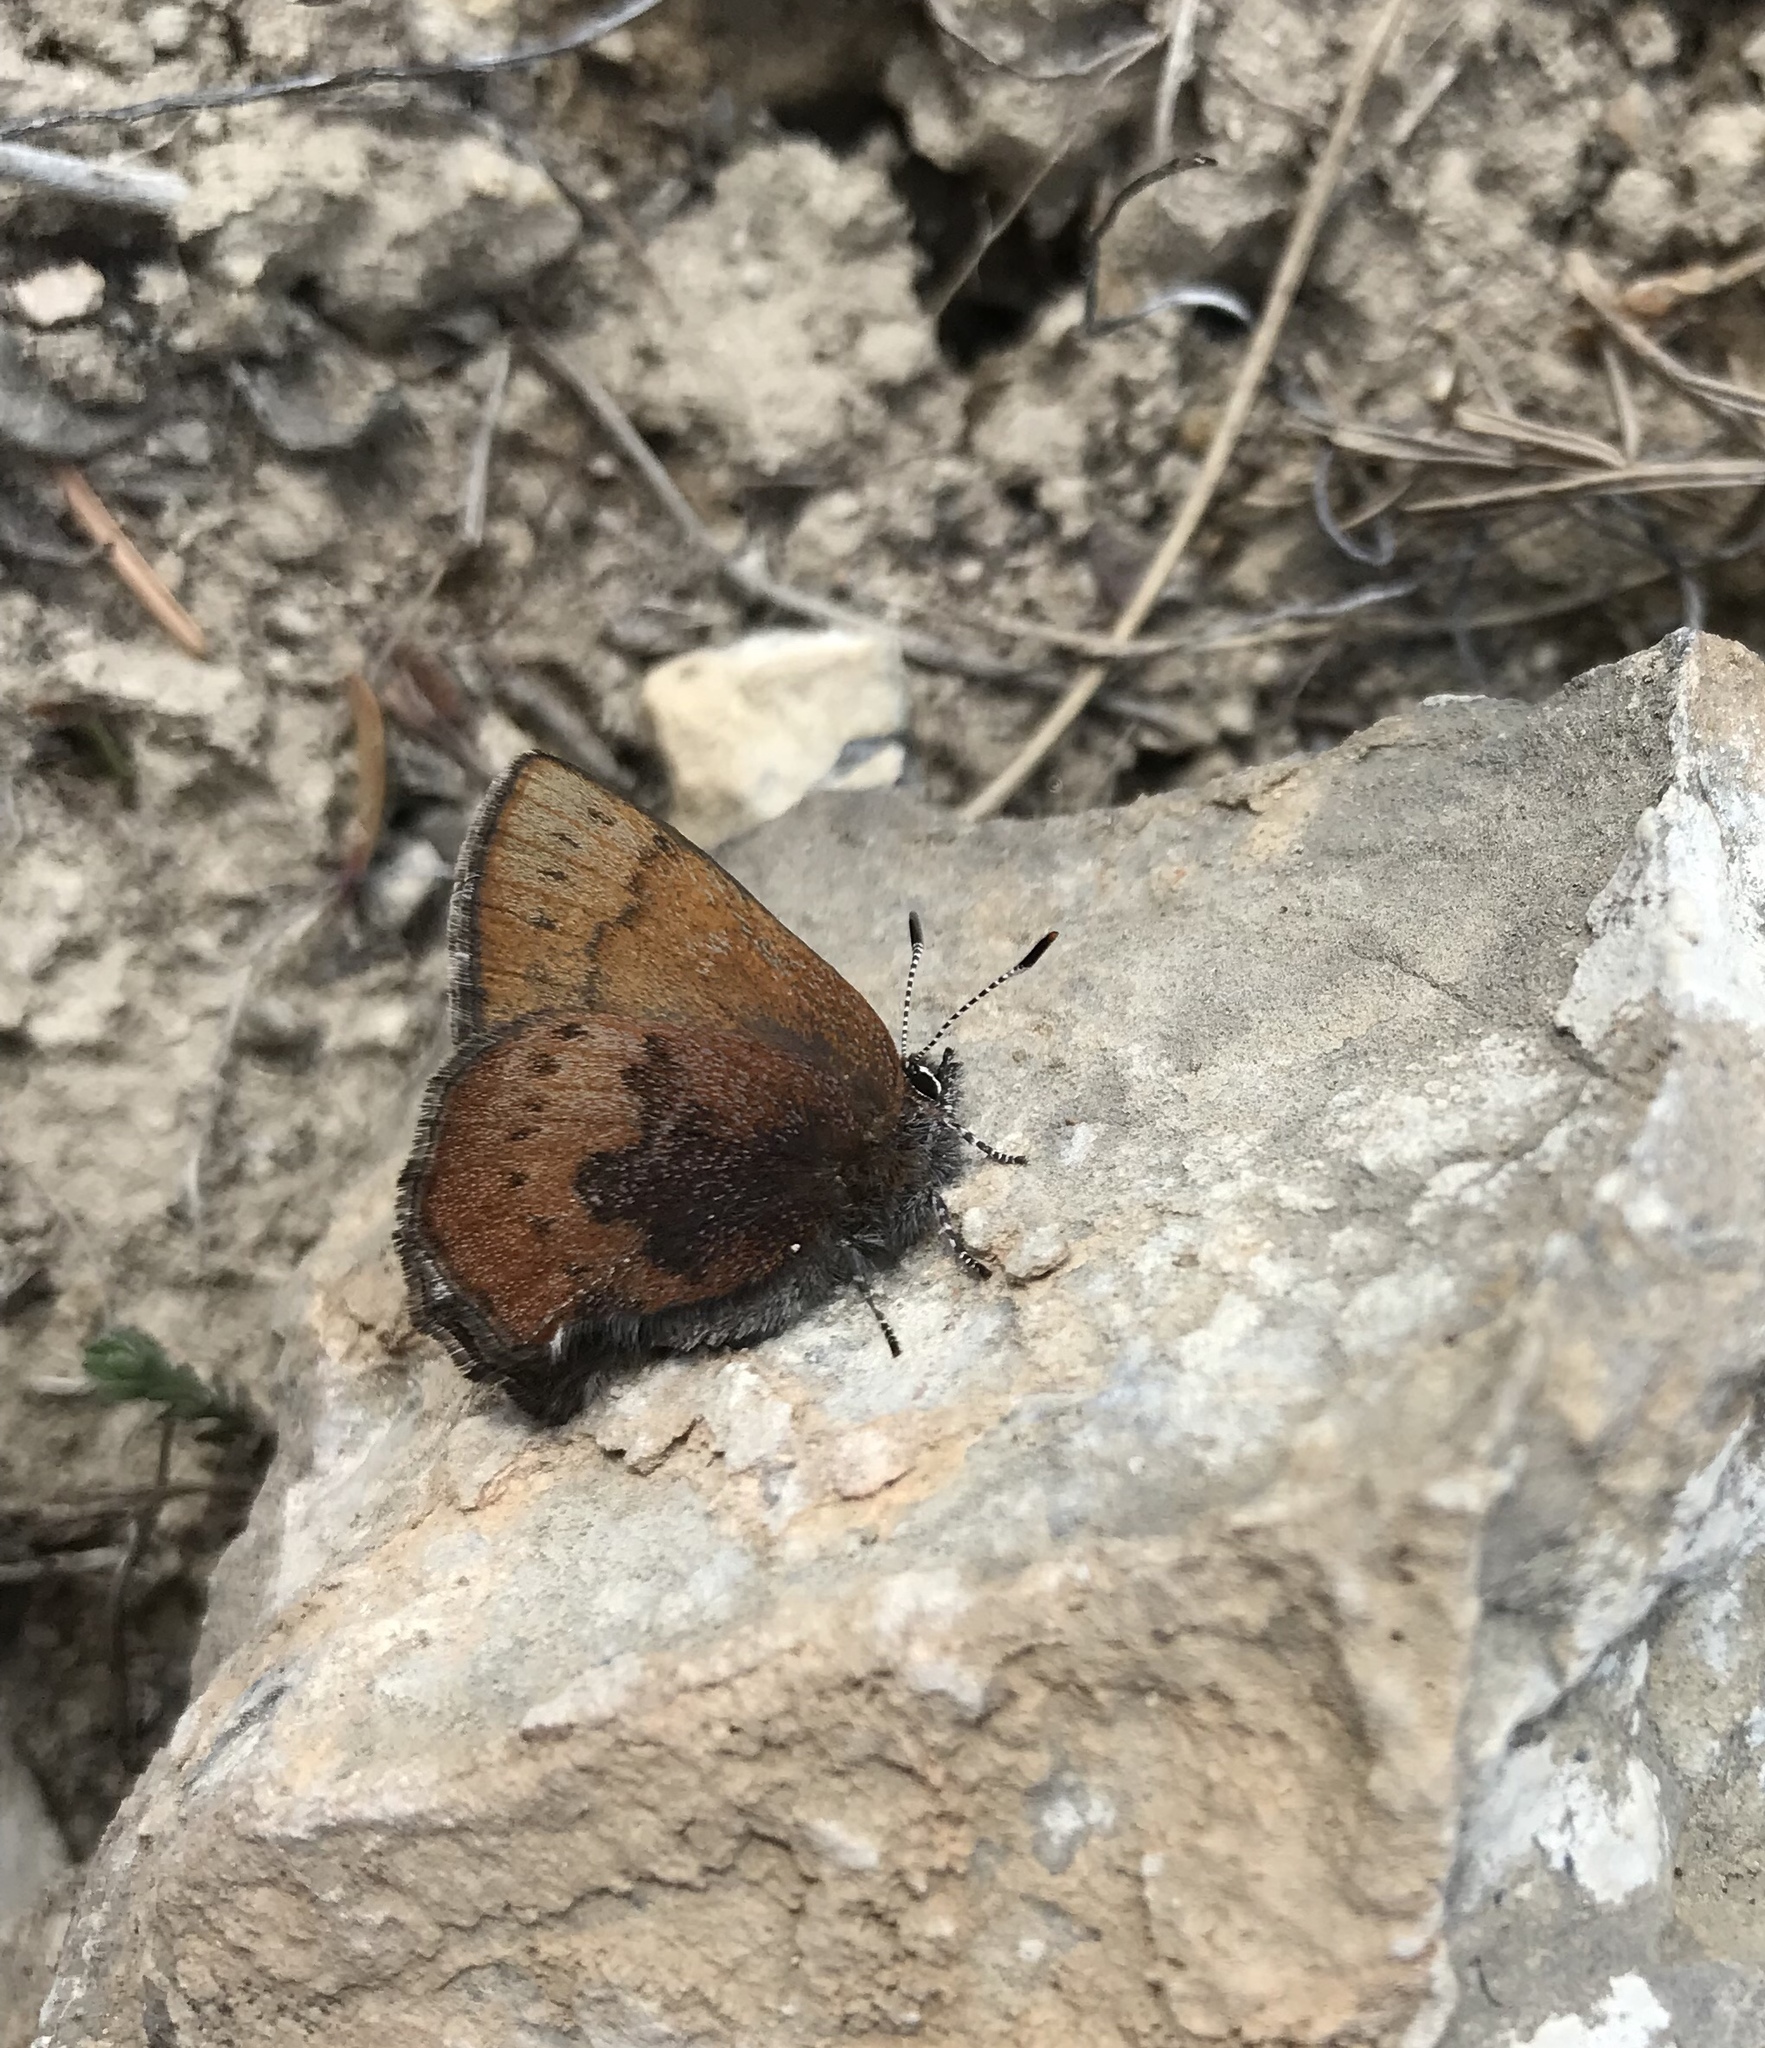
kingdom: Animalia
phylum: Arthropoda
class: Insecta
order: Lepidoptera
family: Lycaenidae
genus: Incisalia
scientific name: Incisalia irioides
